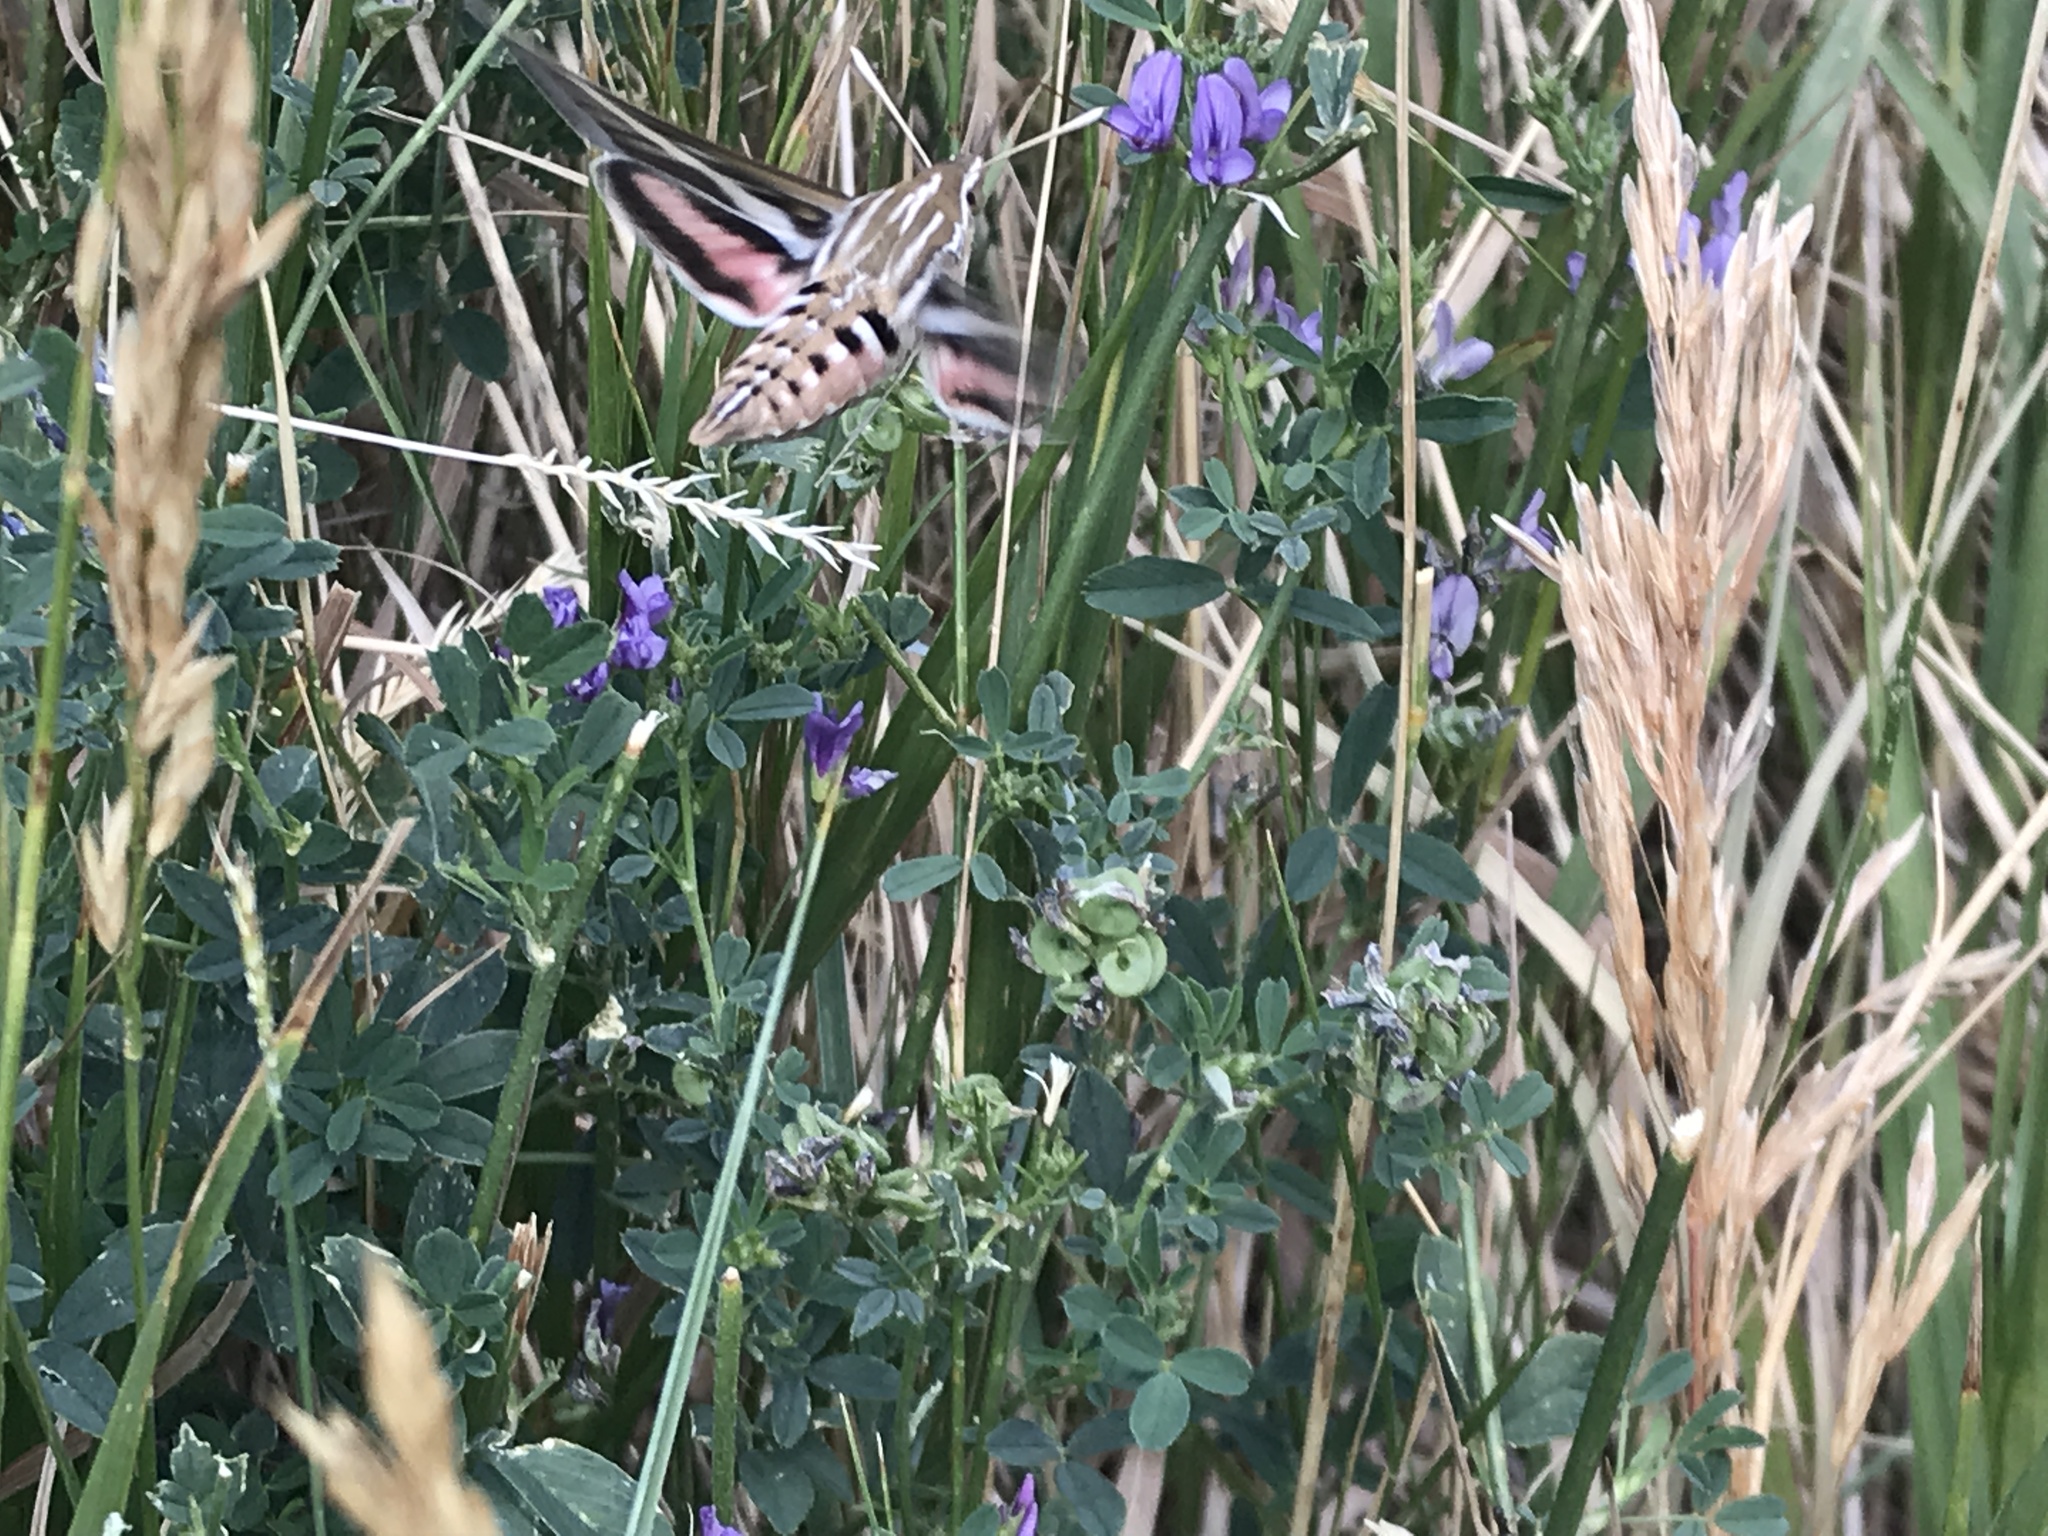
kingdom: Animalia
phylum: Arthropoda
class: Insecta
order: Lepidoptera
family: Sphingidae
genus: Hyles
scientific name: Hyles lineata
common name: White-lined sphinx
